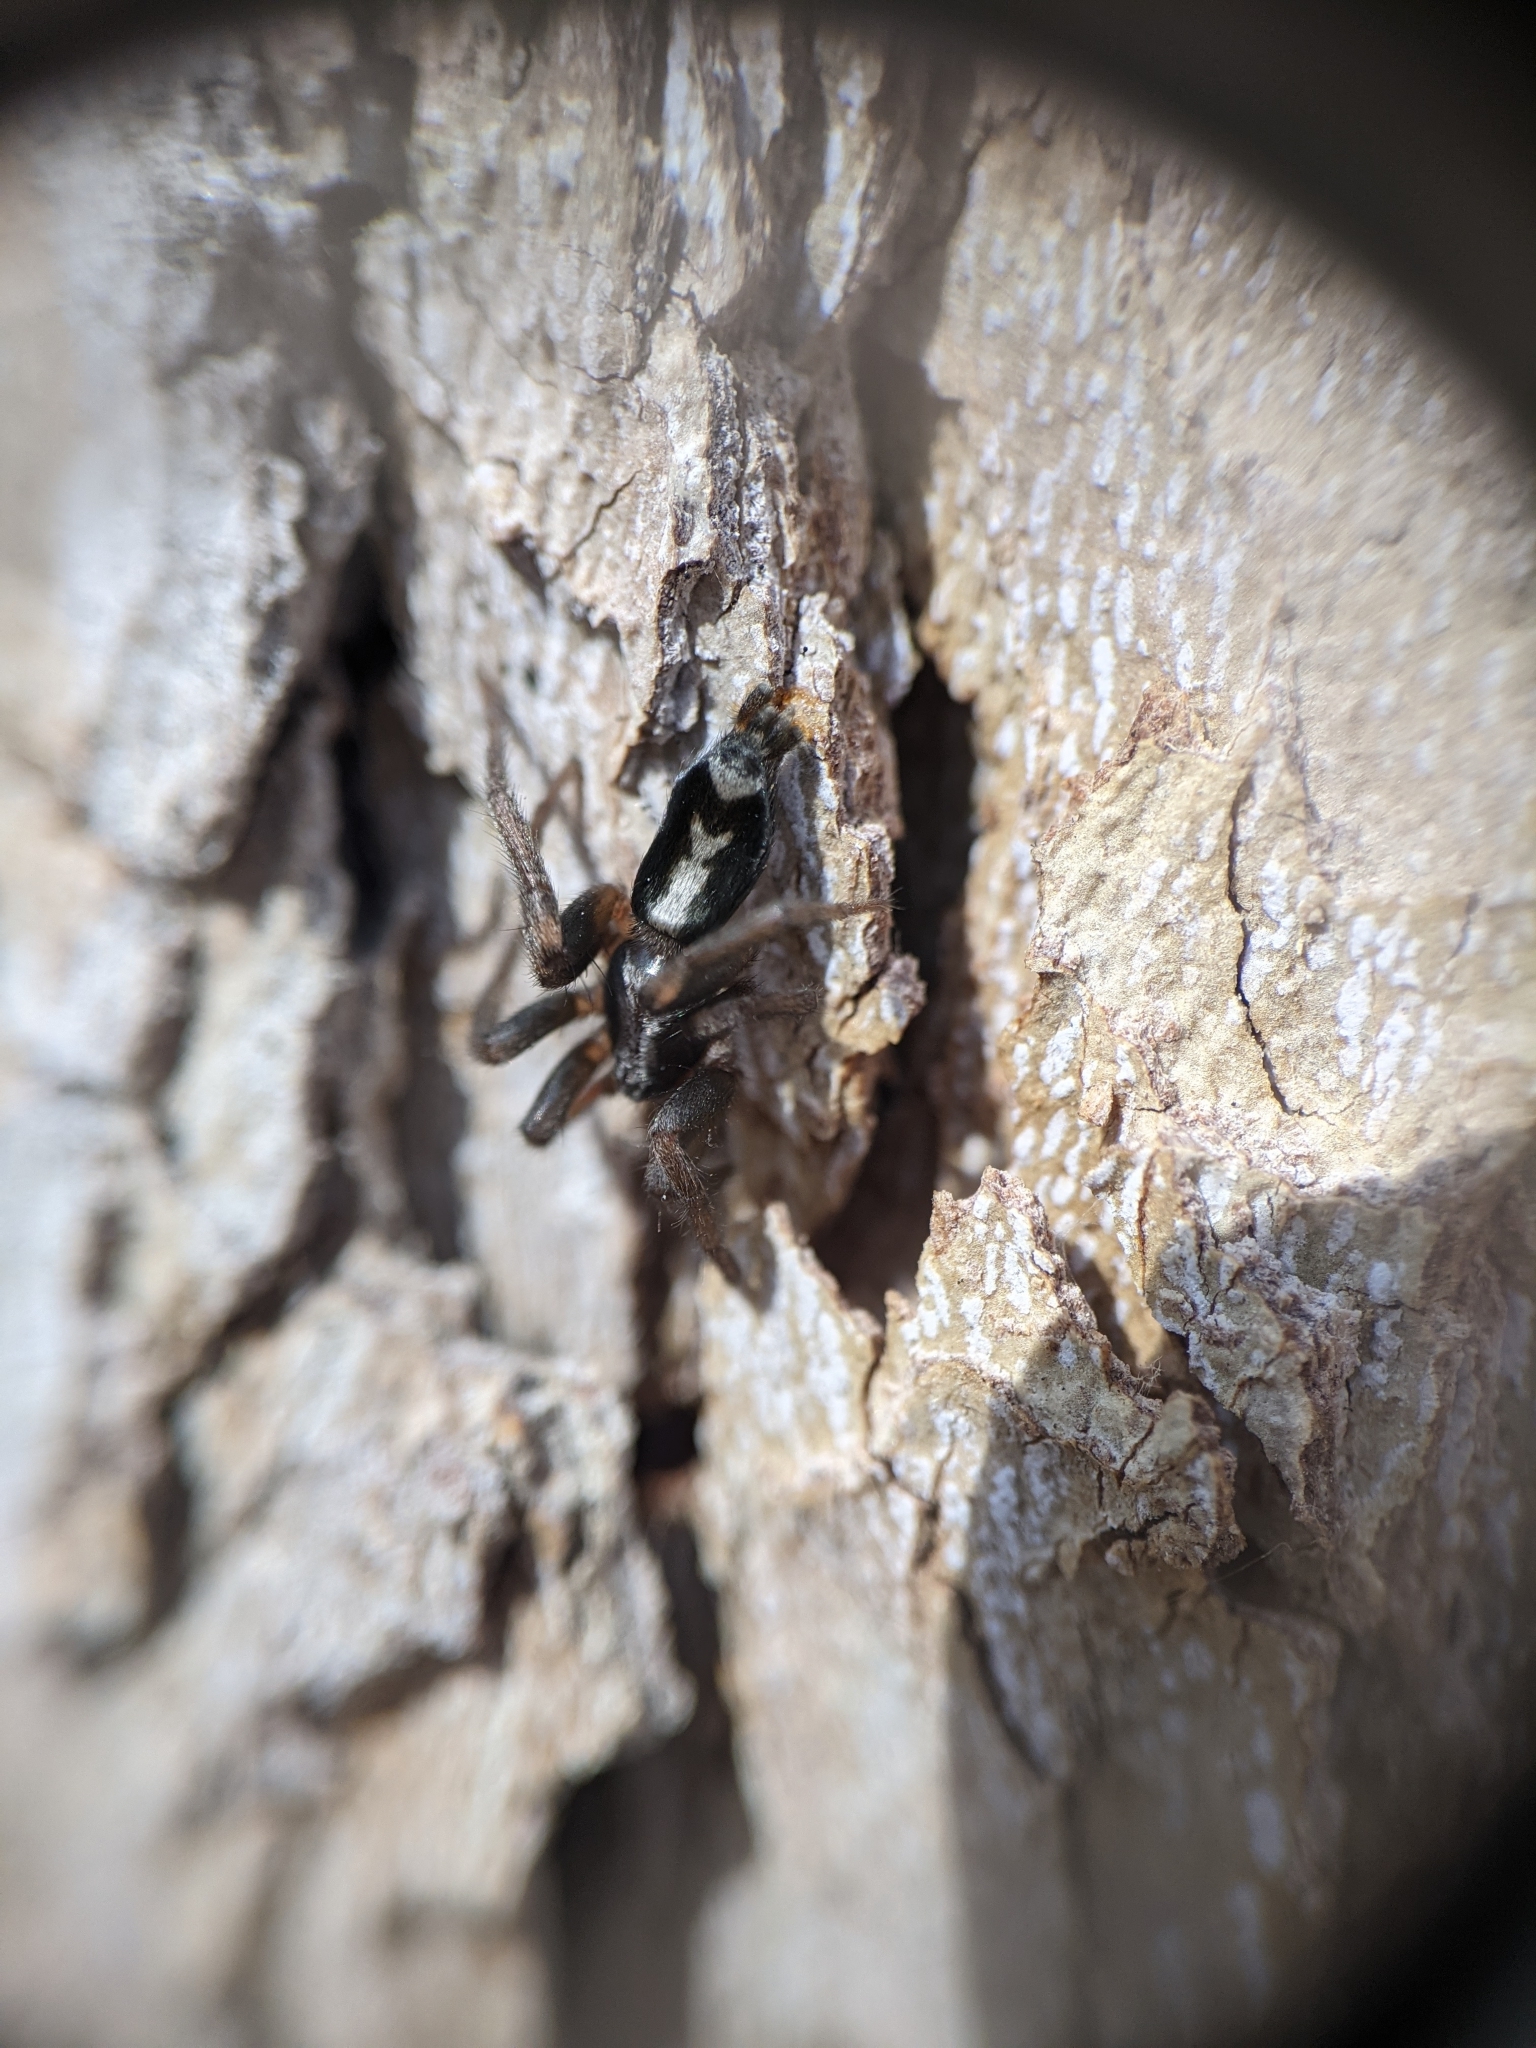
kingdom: Animalia
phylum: Arthropoda
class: Arachnida
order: Araneae
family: Gnaphosidae
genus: Herpyllus
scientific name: Herpyllus ecclesiasticus
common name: Eastern parson spider
